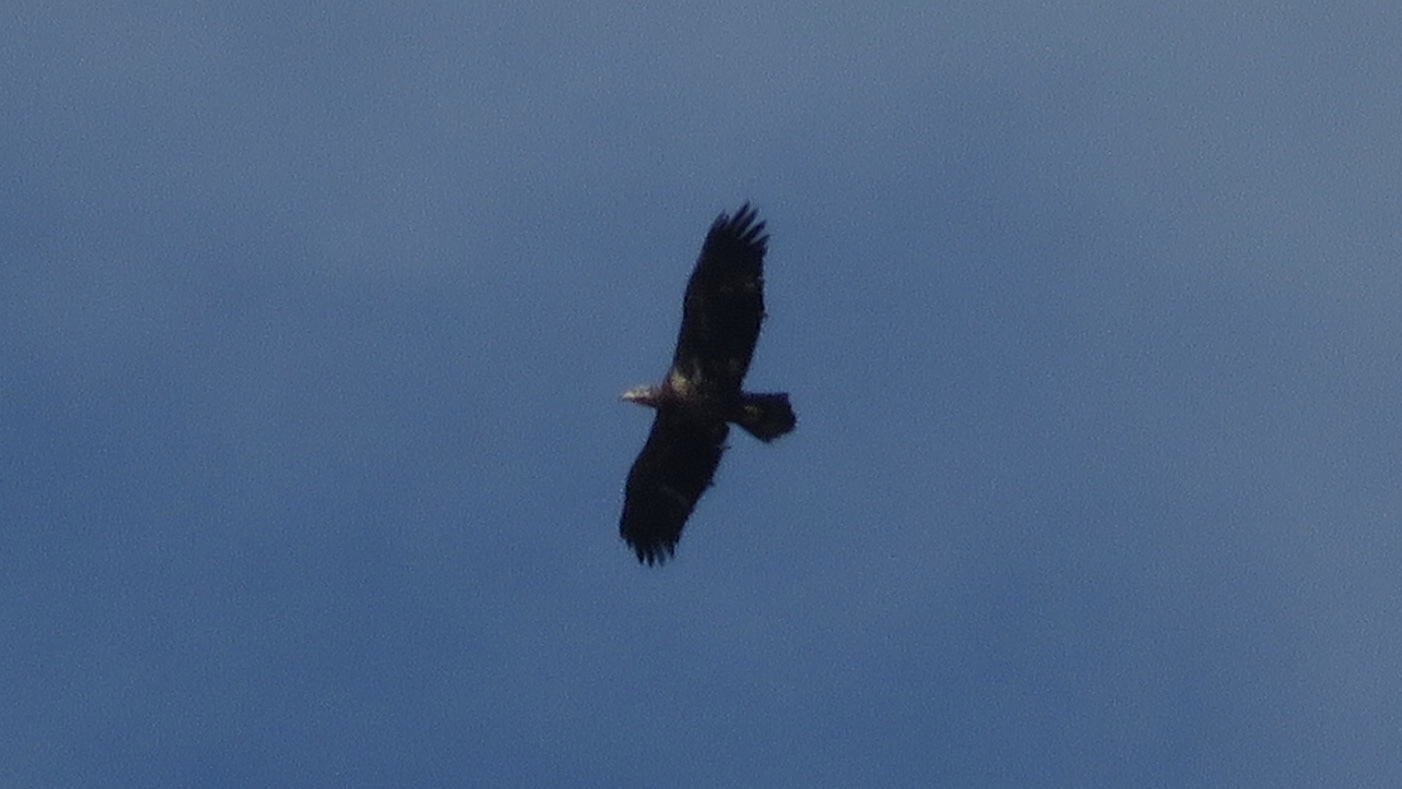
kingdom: Animalia
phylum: Chordata
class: Aves
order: Accipitriformes
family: Accipitridae
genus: Haliaeetus
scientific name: Haliaeetus leucocephalus
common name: Bald eagle
